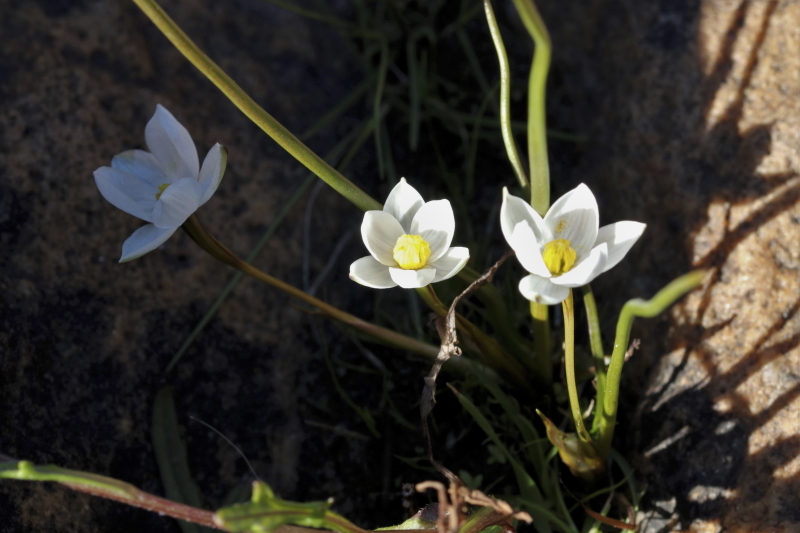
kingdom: Plantae
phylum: Tracheophyta
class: Liliopsida
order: Asparagales
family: Hypoxidaceae
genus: Pauridia
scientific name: Pauridia aquatica
